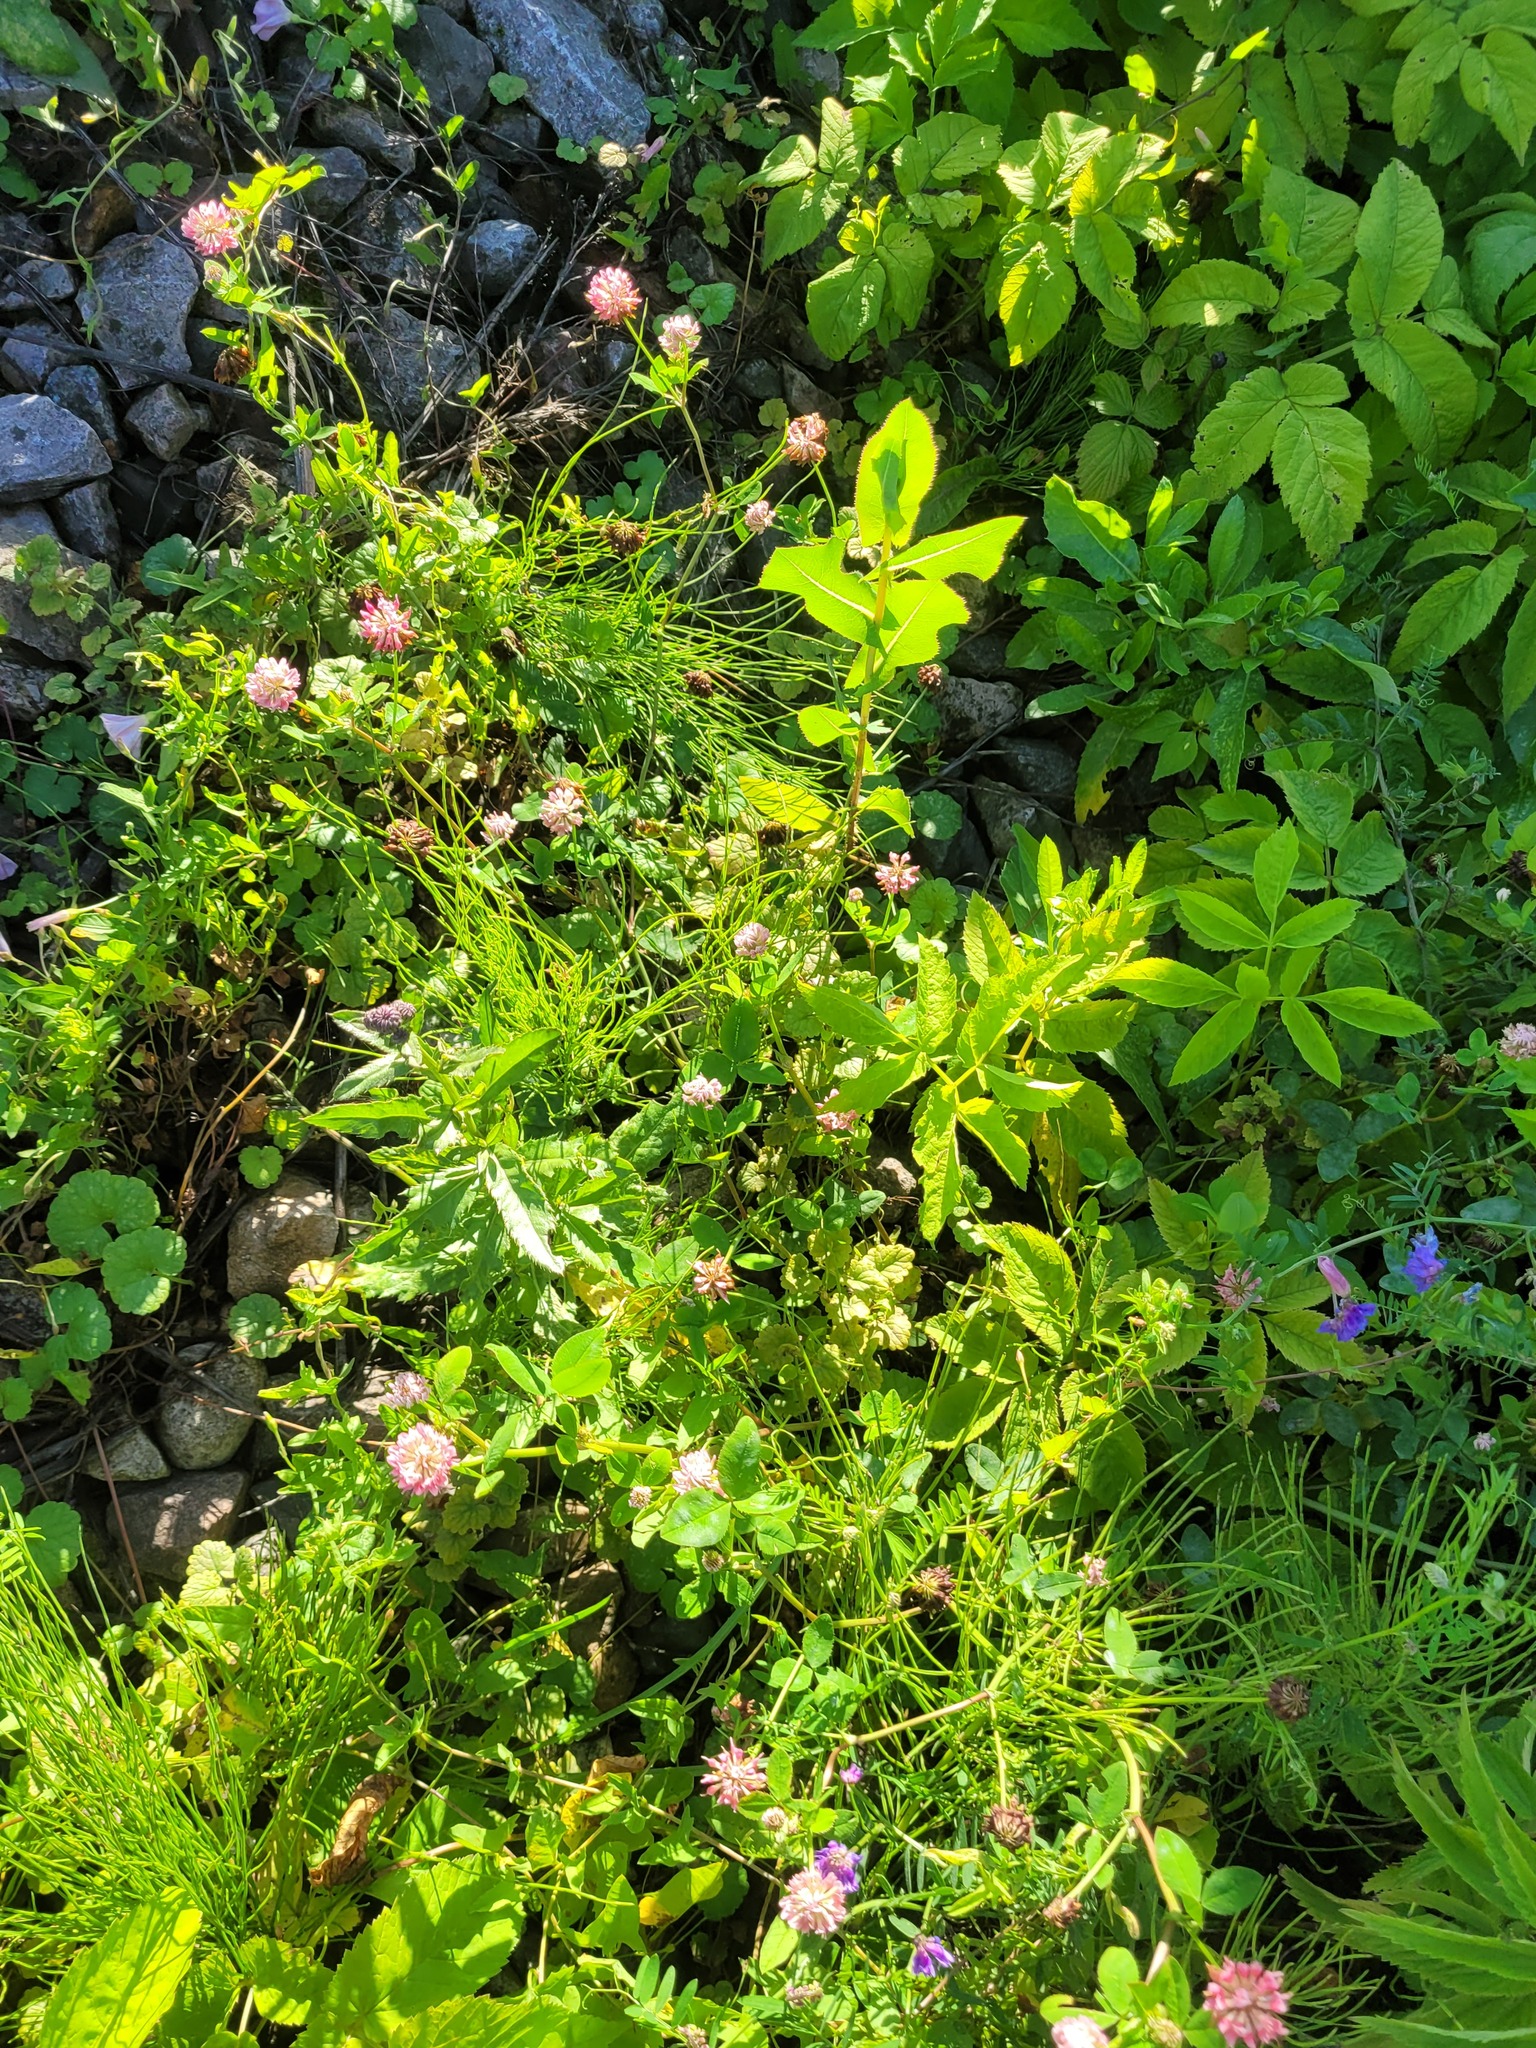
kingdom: Plantae
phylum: Tracheophyta
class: Magnoliopsida
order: Fabales
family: Fabaceae
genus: Trifolium
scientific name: Trifolium hybridum
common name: Alsike clover
